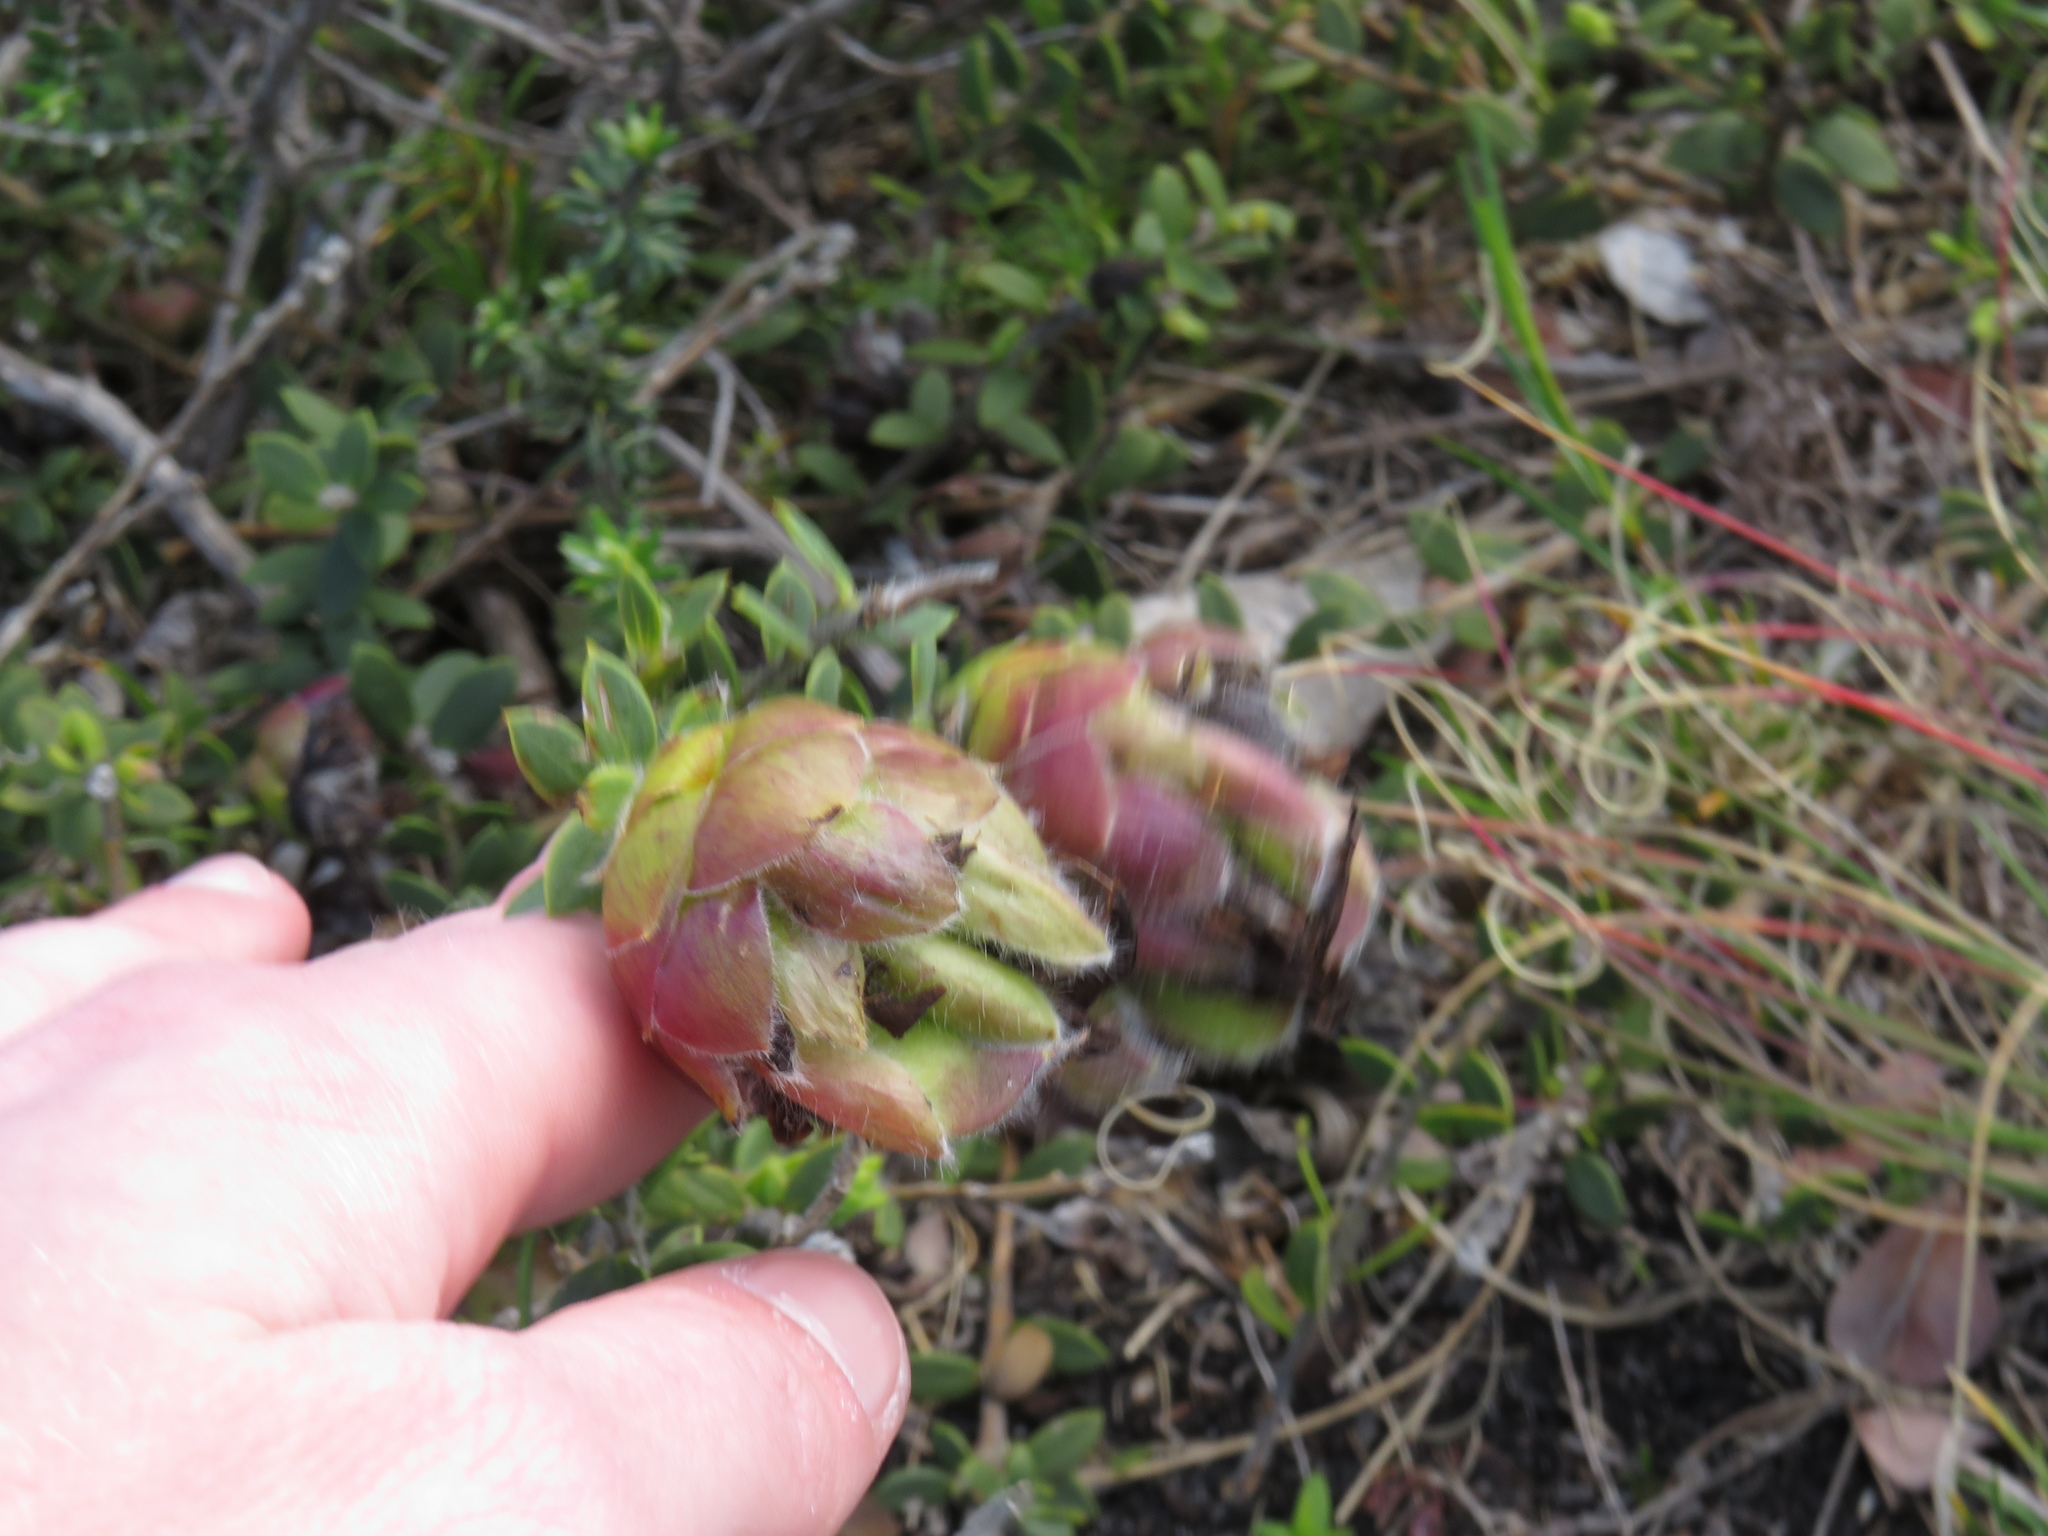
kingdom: Plantae
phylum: Tracheophyta
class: Magnoliopsida
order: Fabales
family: Fabaceae
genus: Liparia
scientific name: Liparia parva
